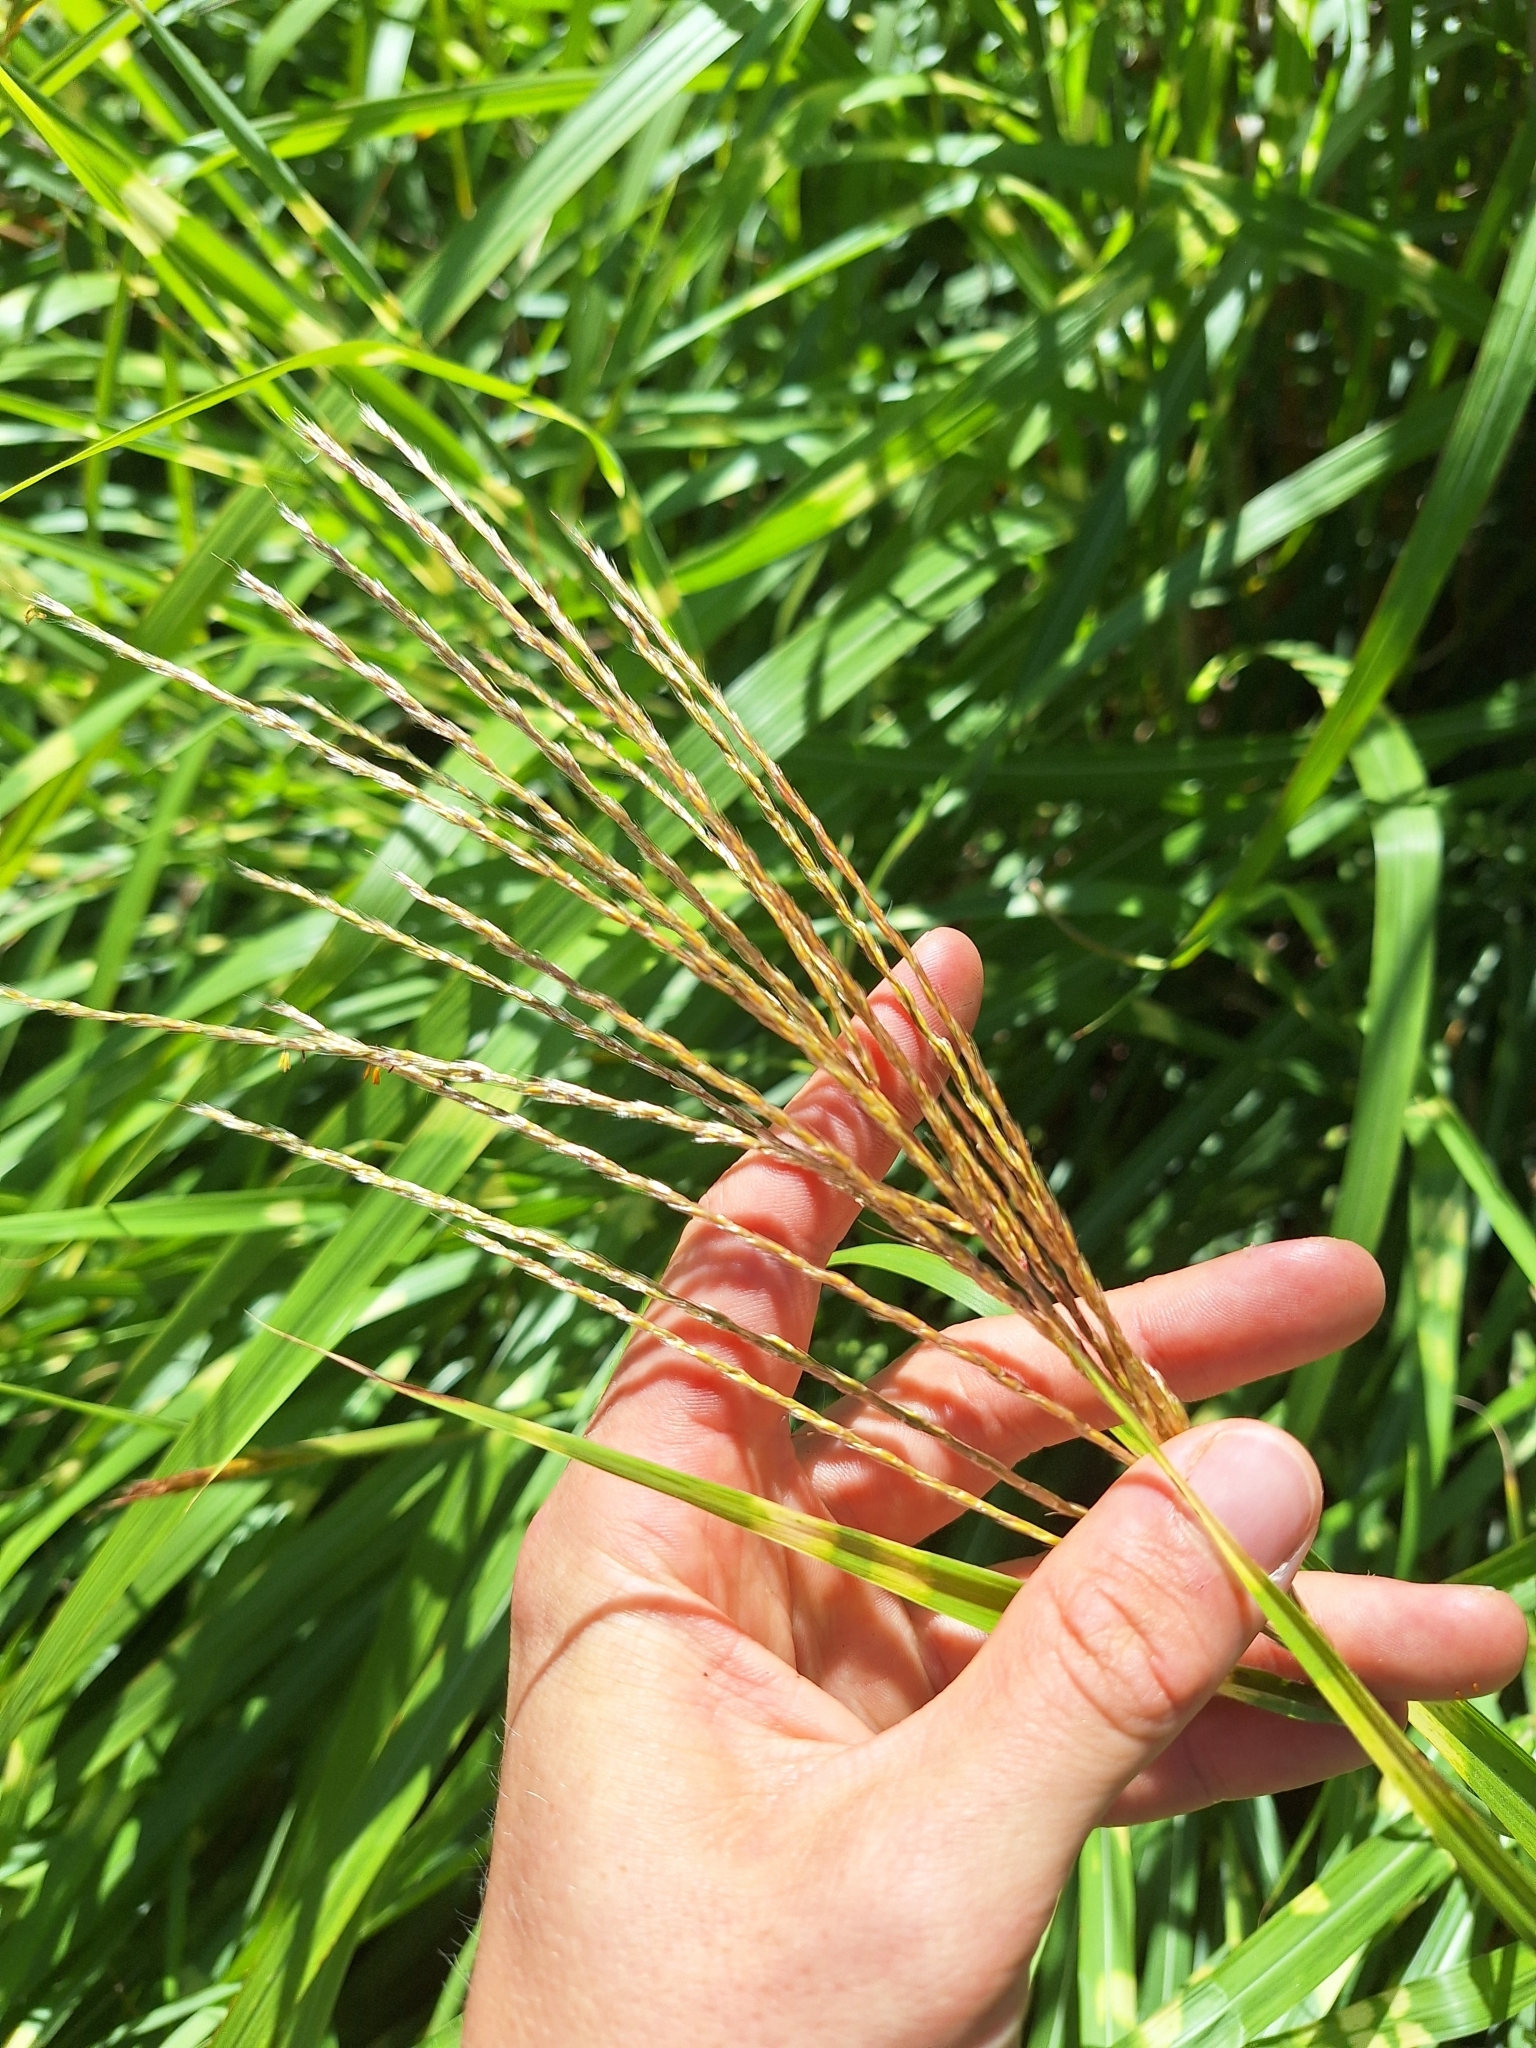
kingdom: Plantae
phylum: Tracheophyta
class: Liliopsida
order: Poales
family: Poaceae
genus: Miscanthus
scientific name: Miscanthus sinensis
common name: Chinese silvergrass
